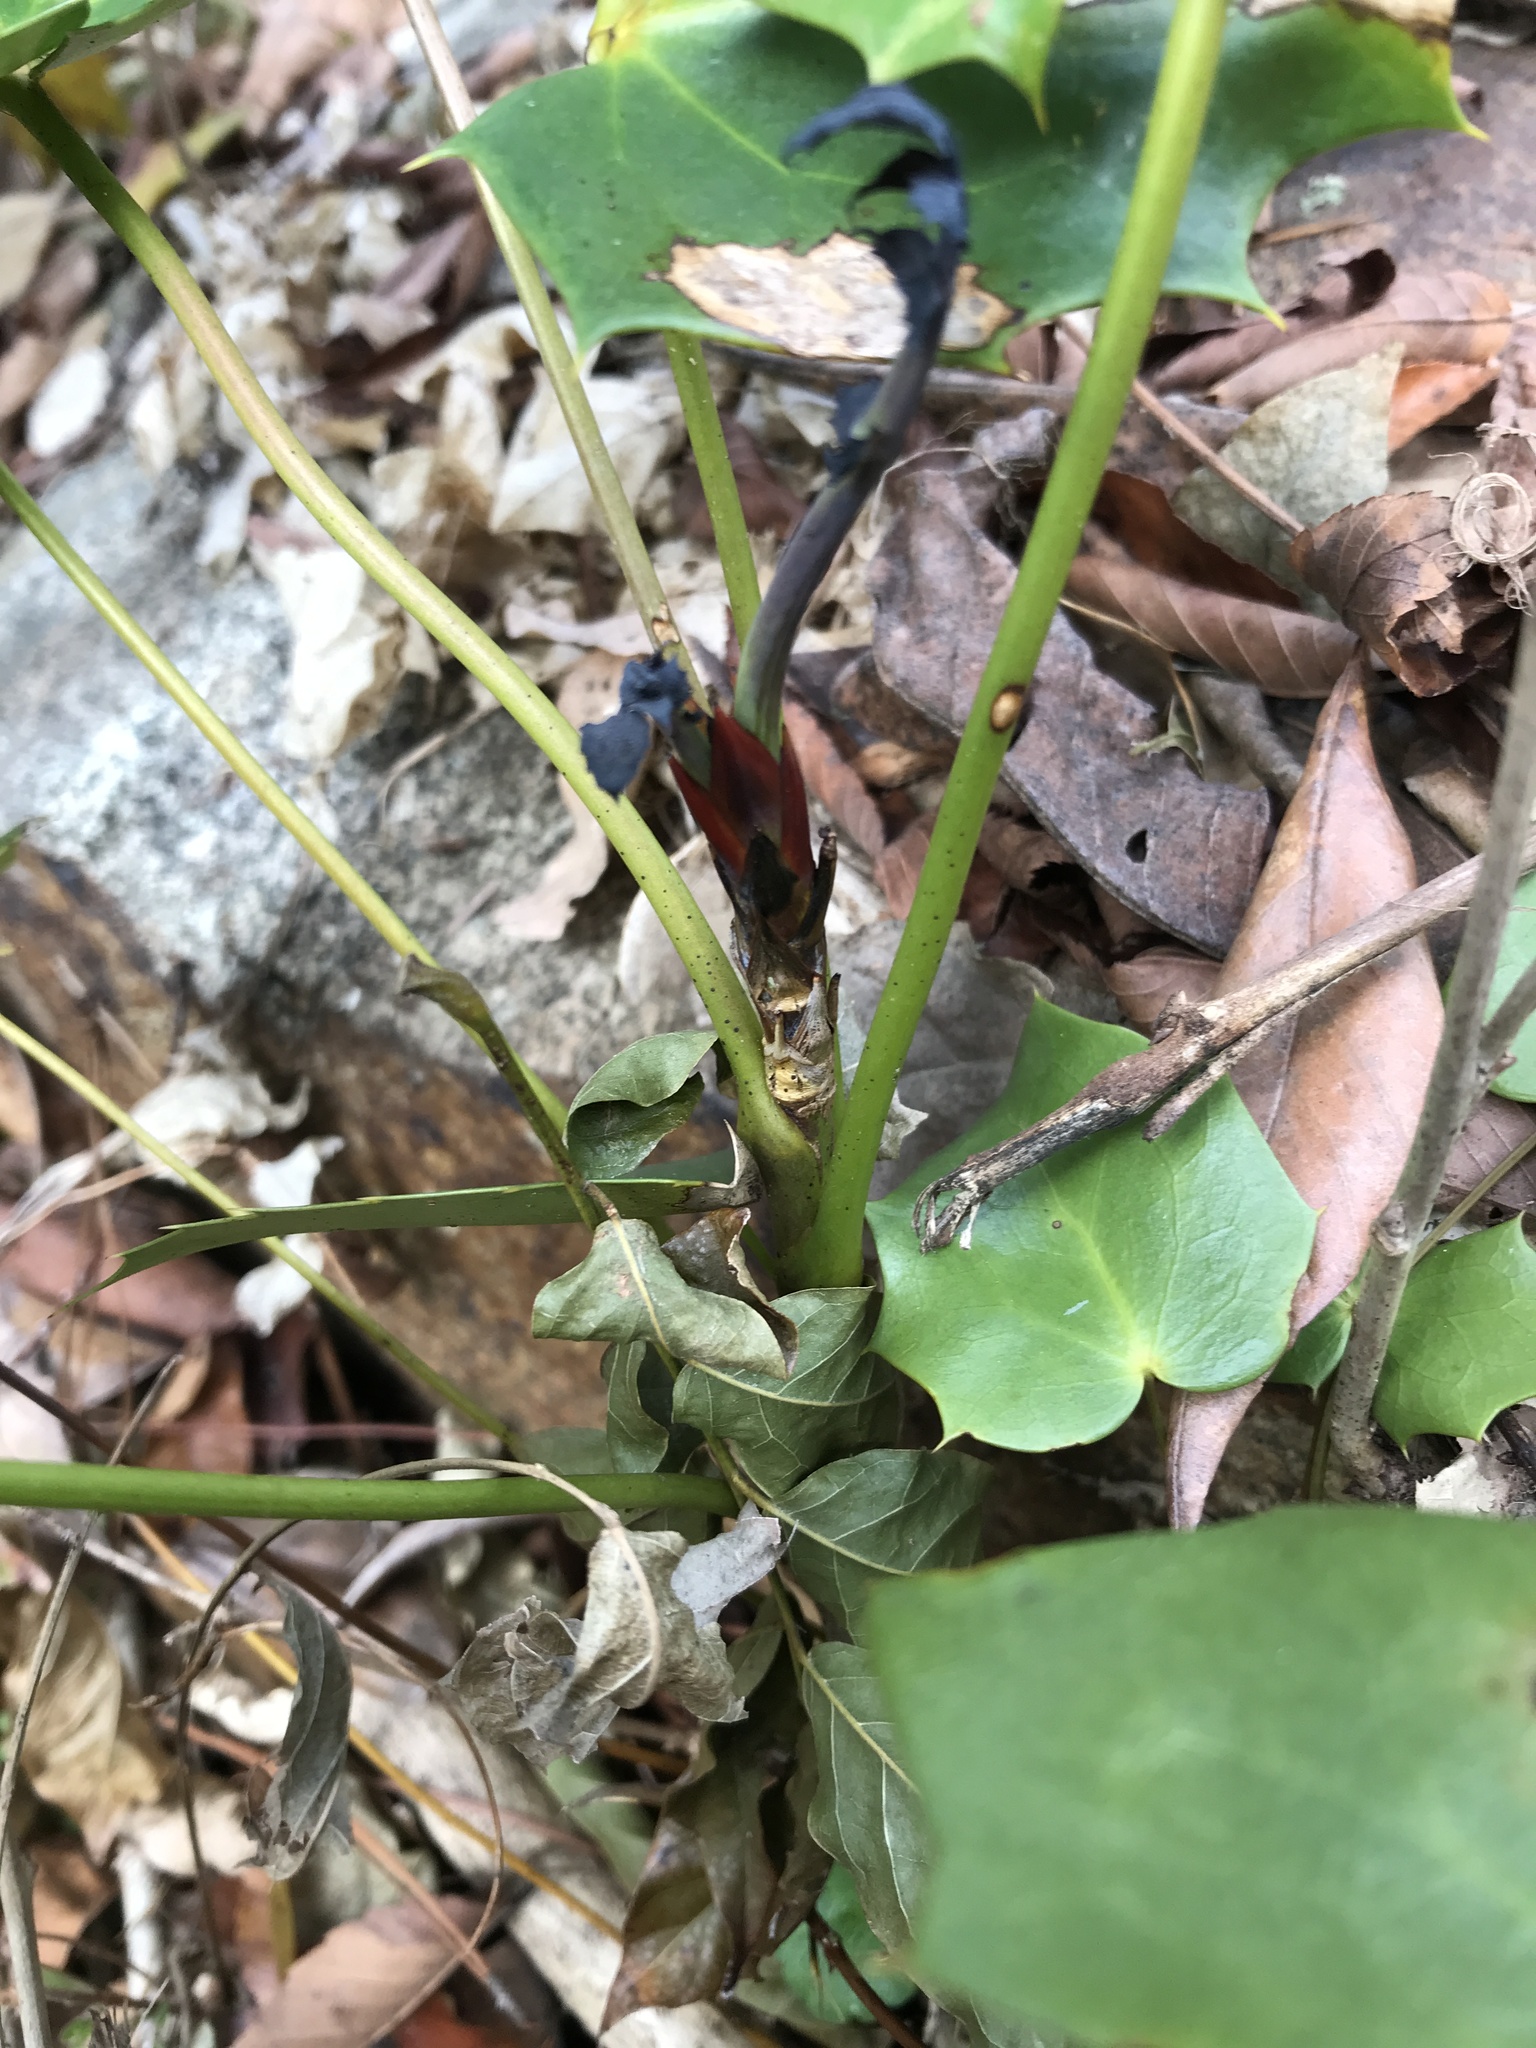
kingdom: Plantae
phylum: Tracheophyta
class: Magnoliopsida
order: Ranunculales
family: Berberidaceae
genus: Mahonia
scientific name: Mahonia bealei
